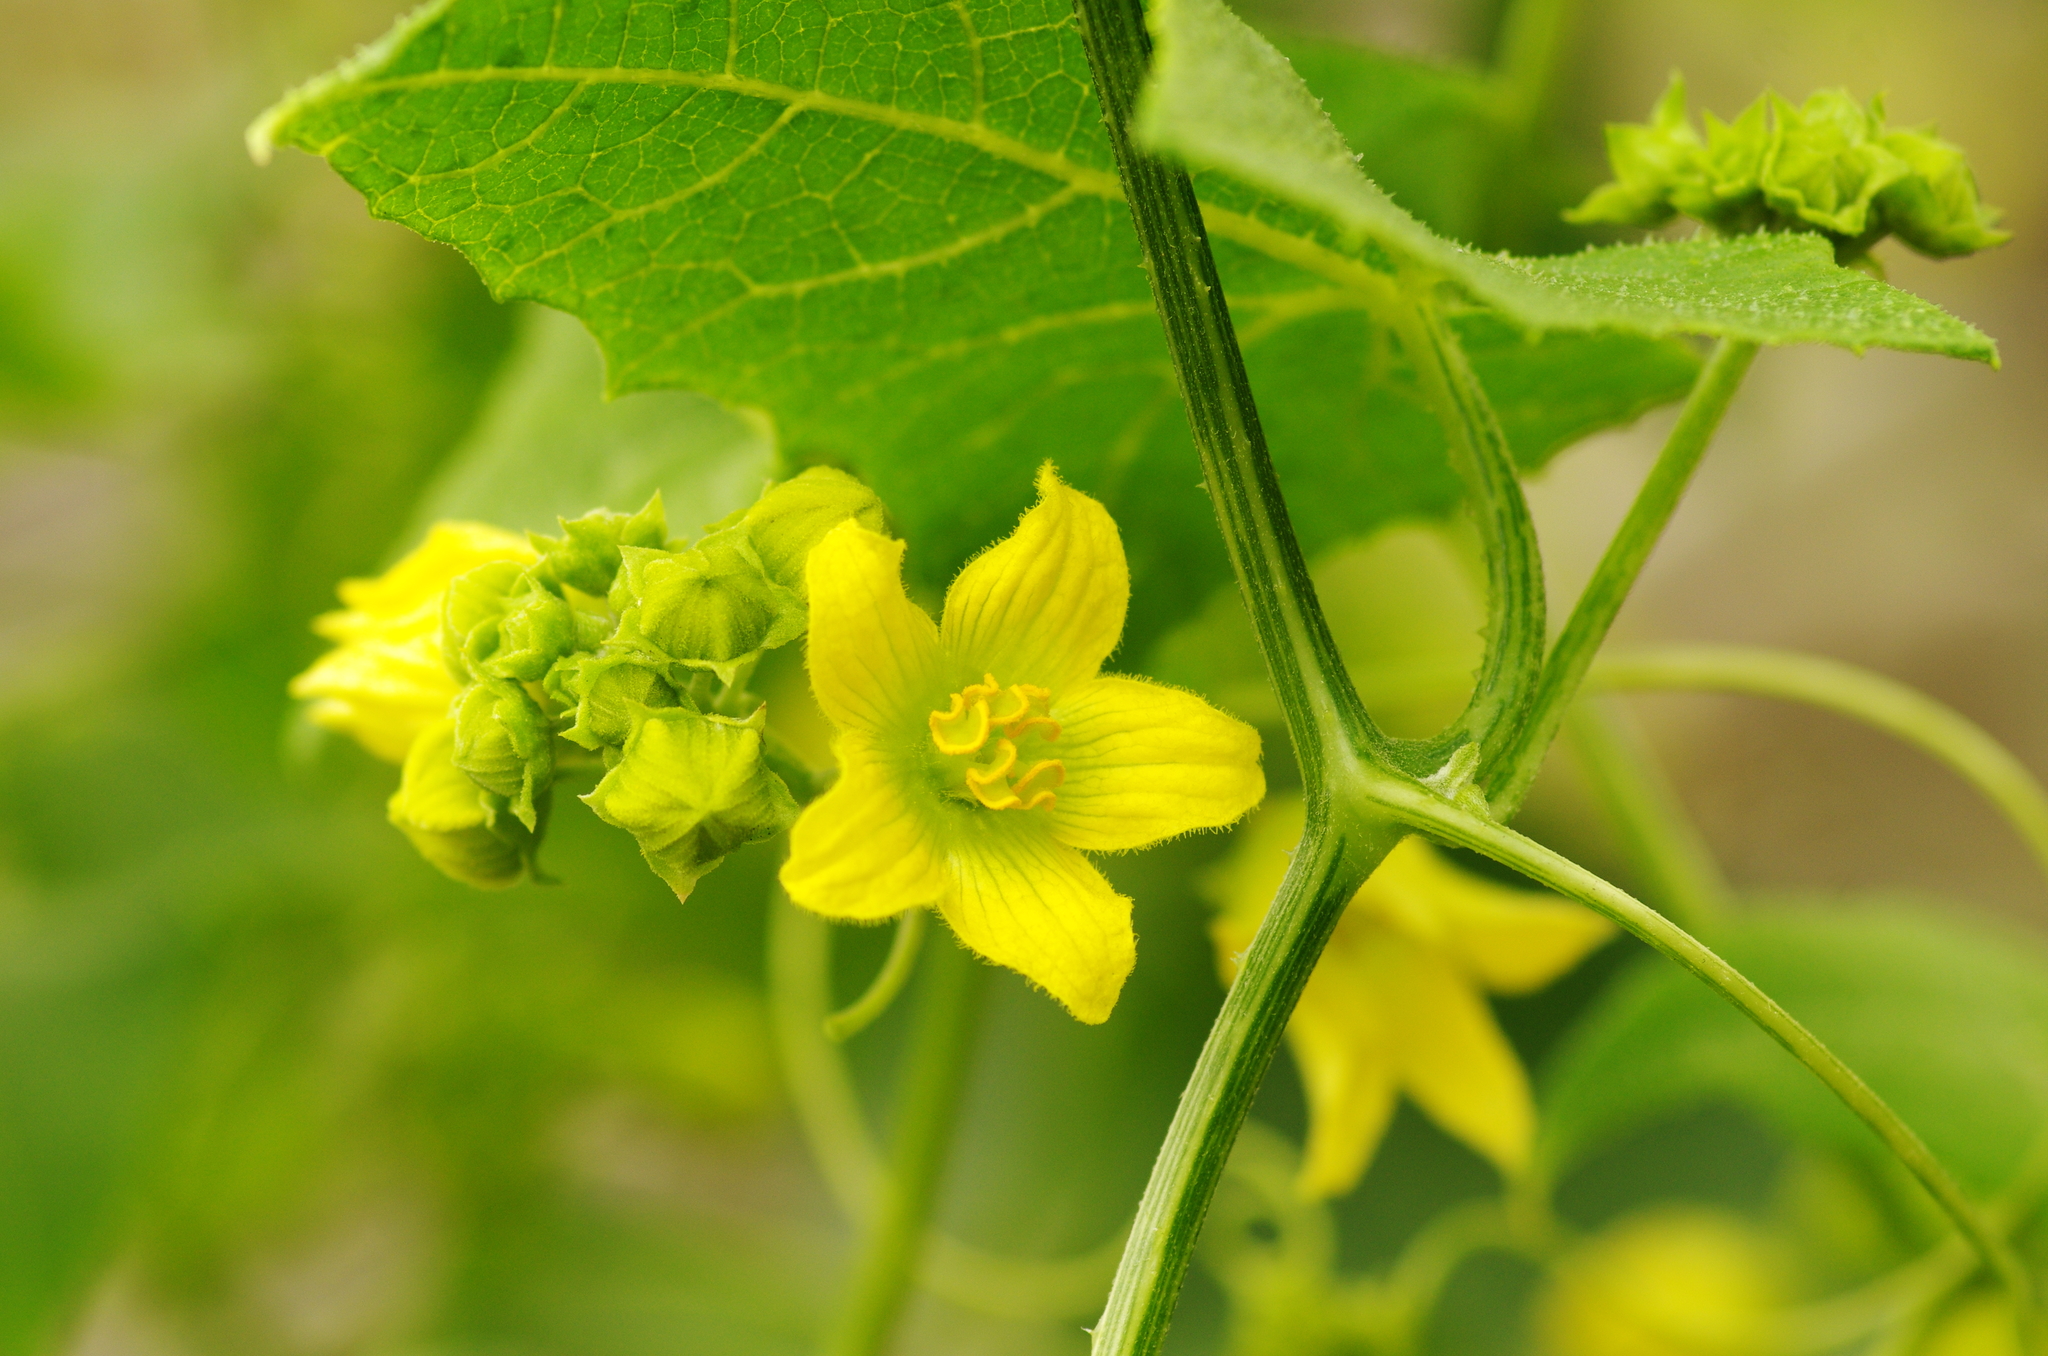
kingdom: Plantae
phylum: Tracheophyta
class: Magnoliopsida
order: Cucurbitales
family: Cucurbitaceae
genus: Bryonia
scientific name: Bryonia verrucosa
